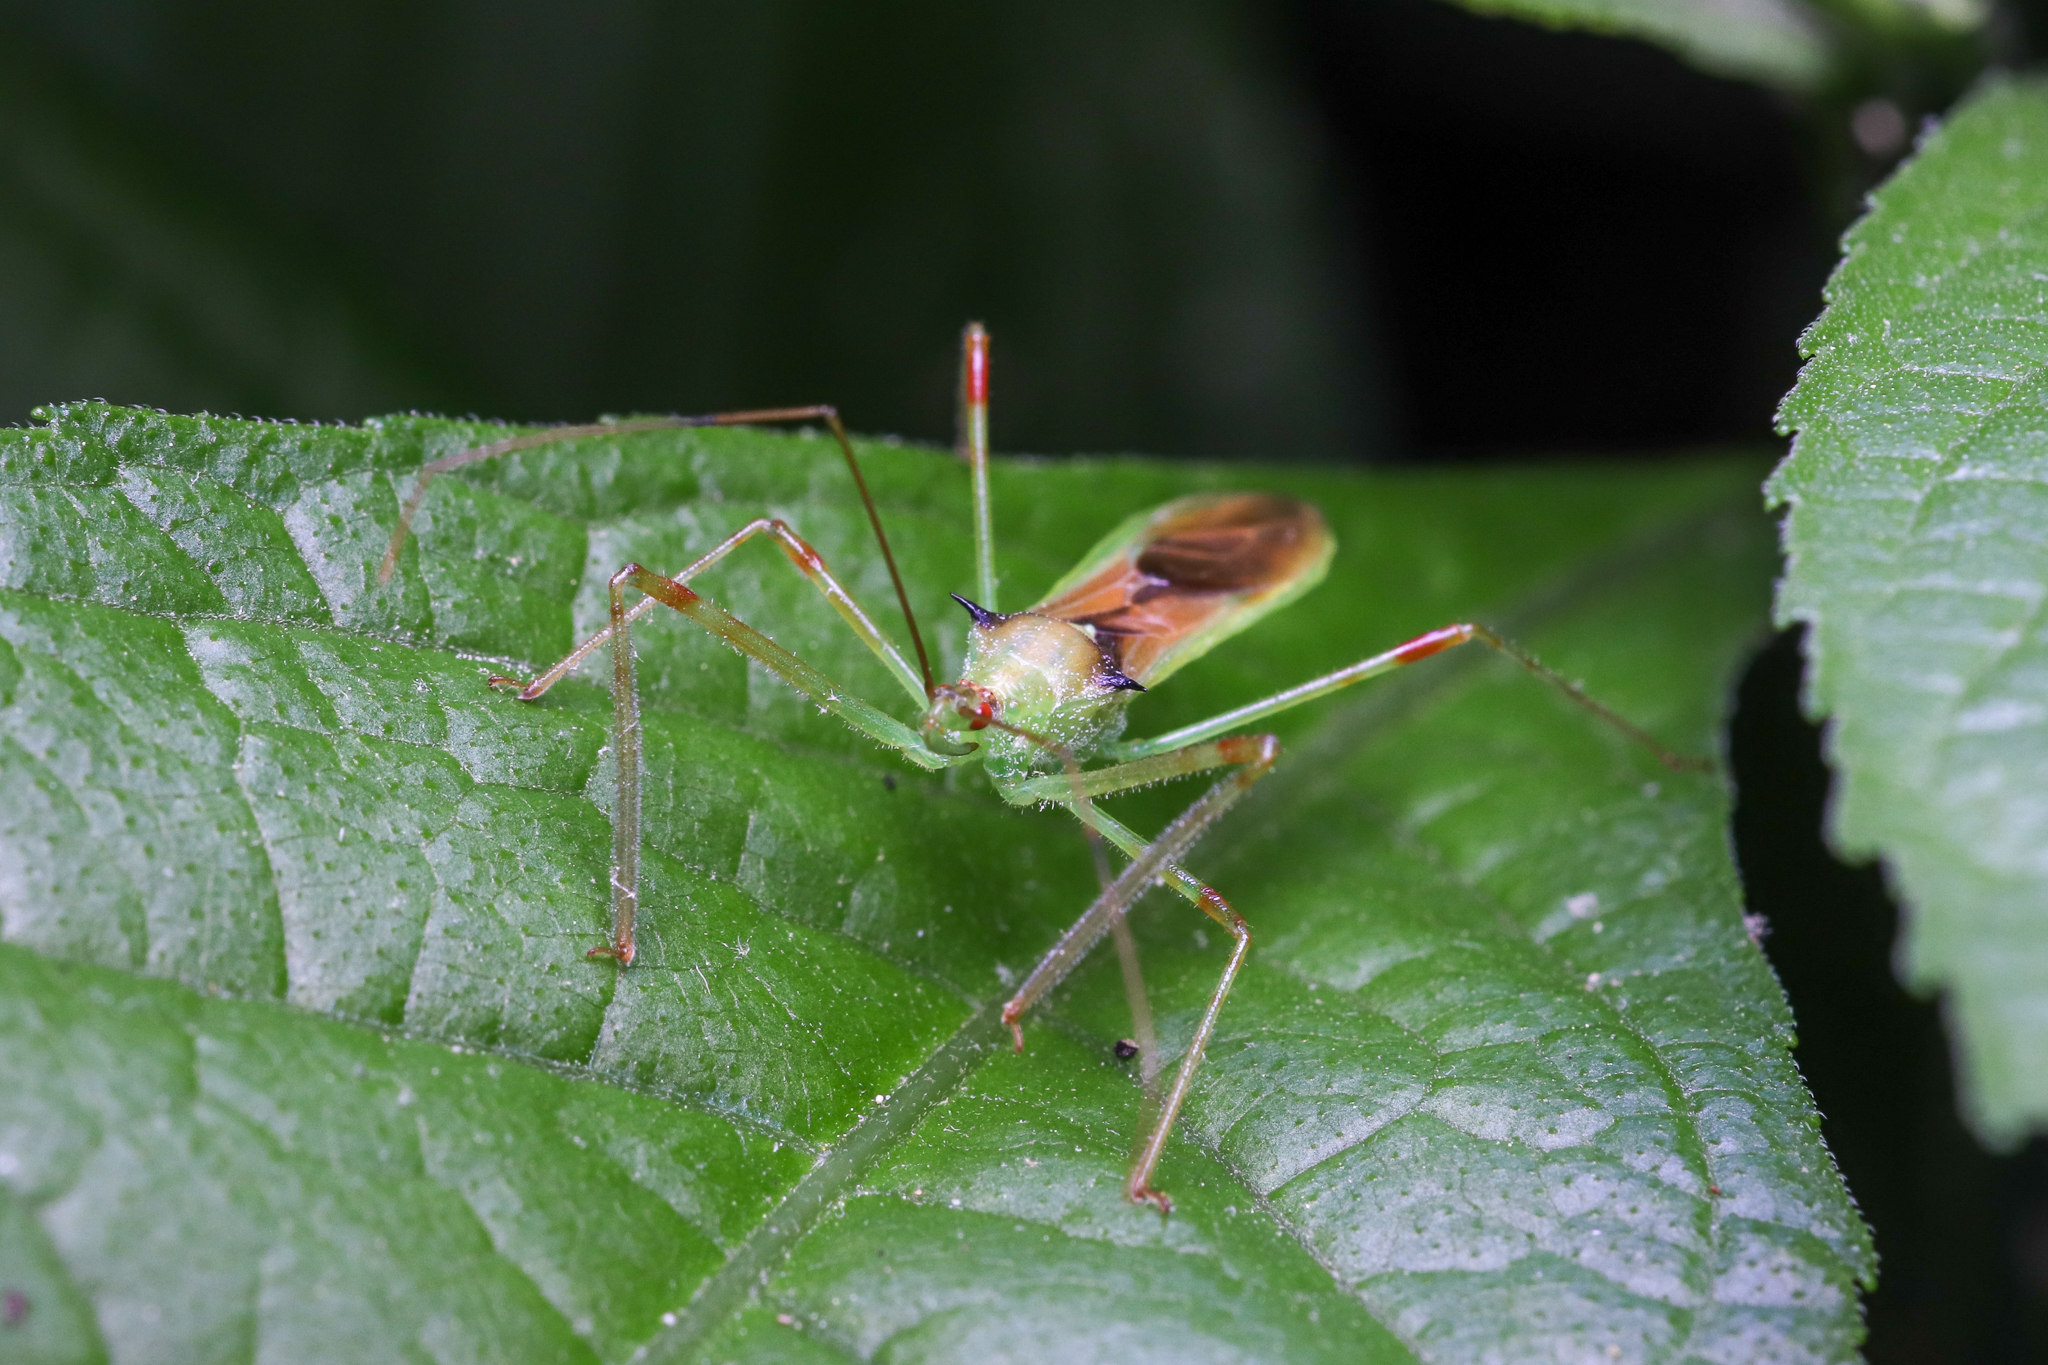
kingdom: Animalia
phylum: Arthropoda
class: Insecta
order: Hemiptera
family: Reduviidae
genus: Zelus
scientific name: Zelus luridus
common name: Pale green assassin bug
